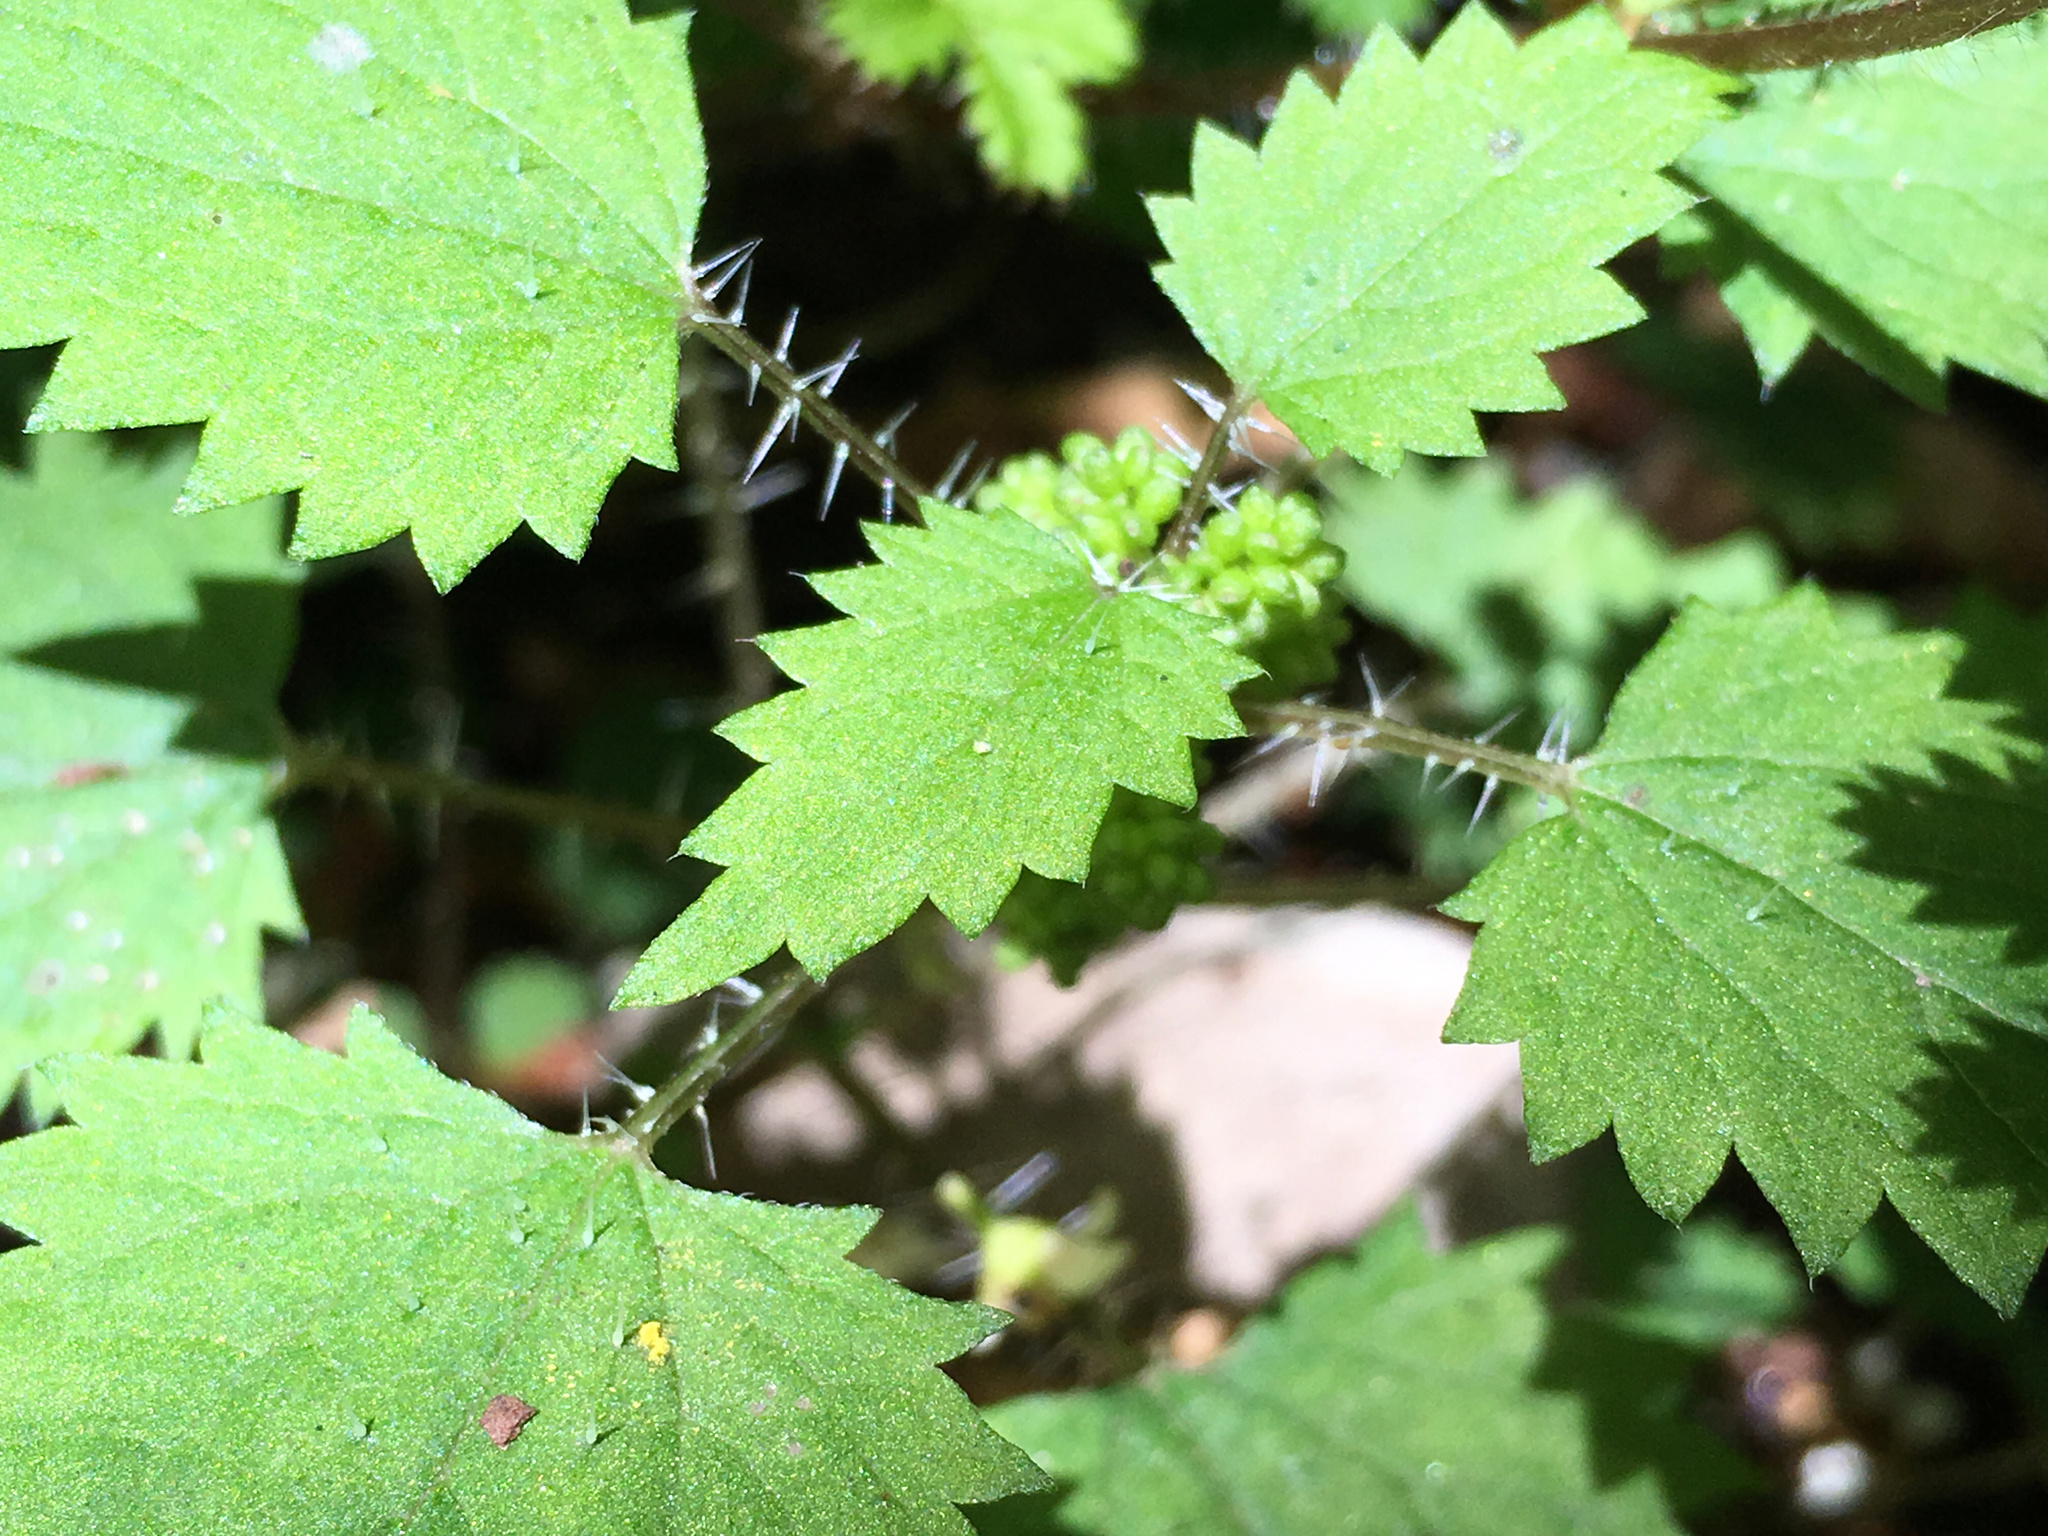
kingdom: Plantae
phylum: Tracheophyta
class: Magnoliopsida
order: Rosales
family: Urticaceae
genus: Urtica
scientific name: Urtica sykesii
